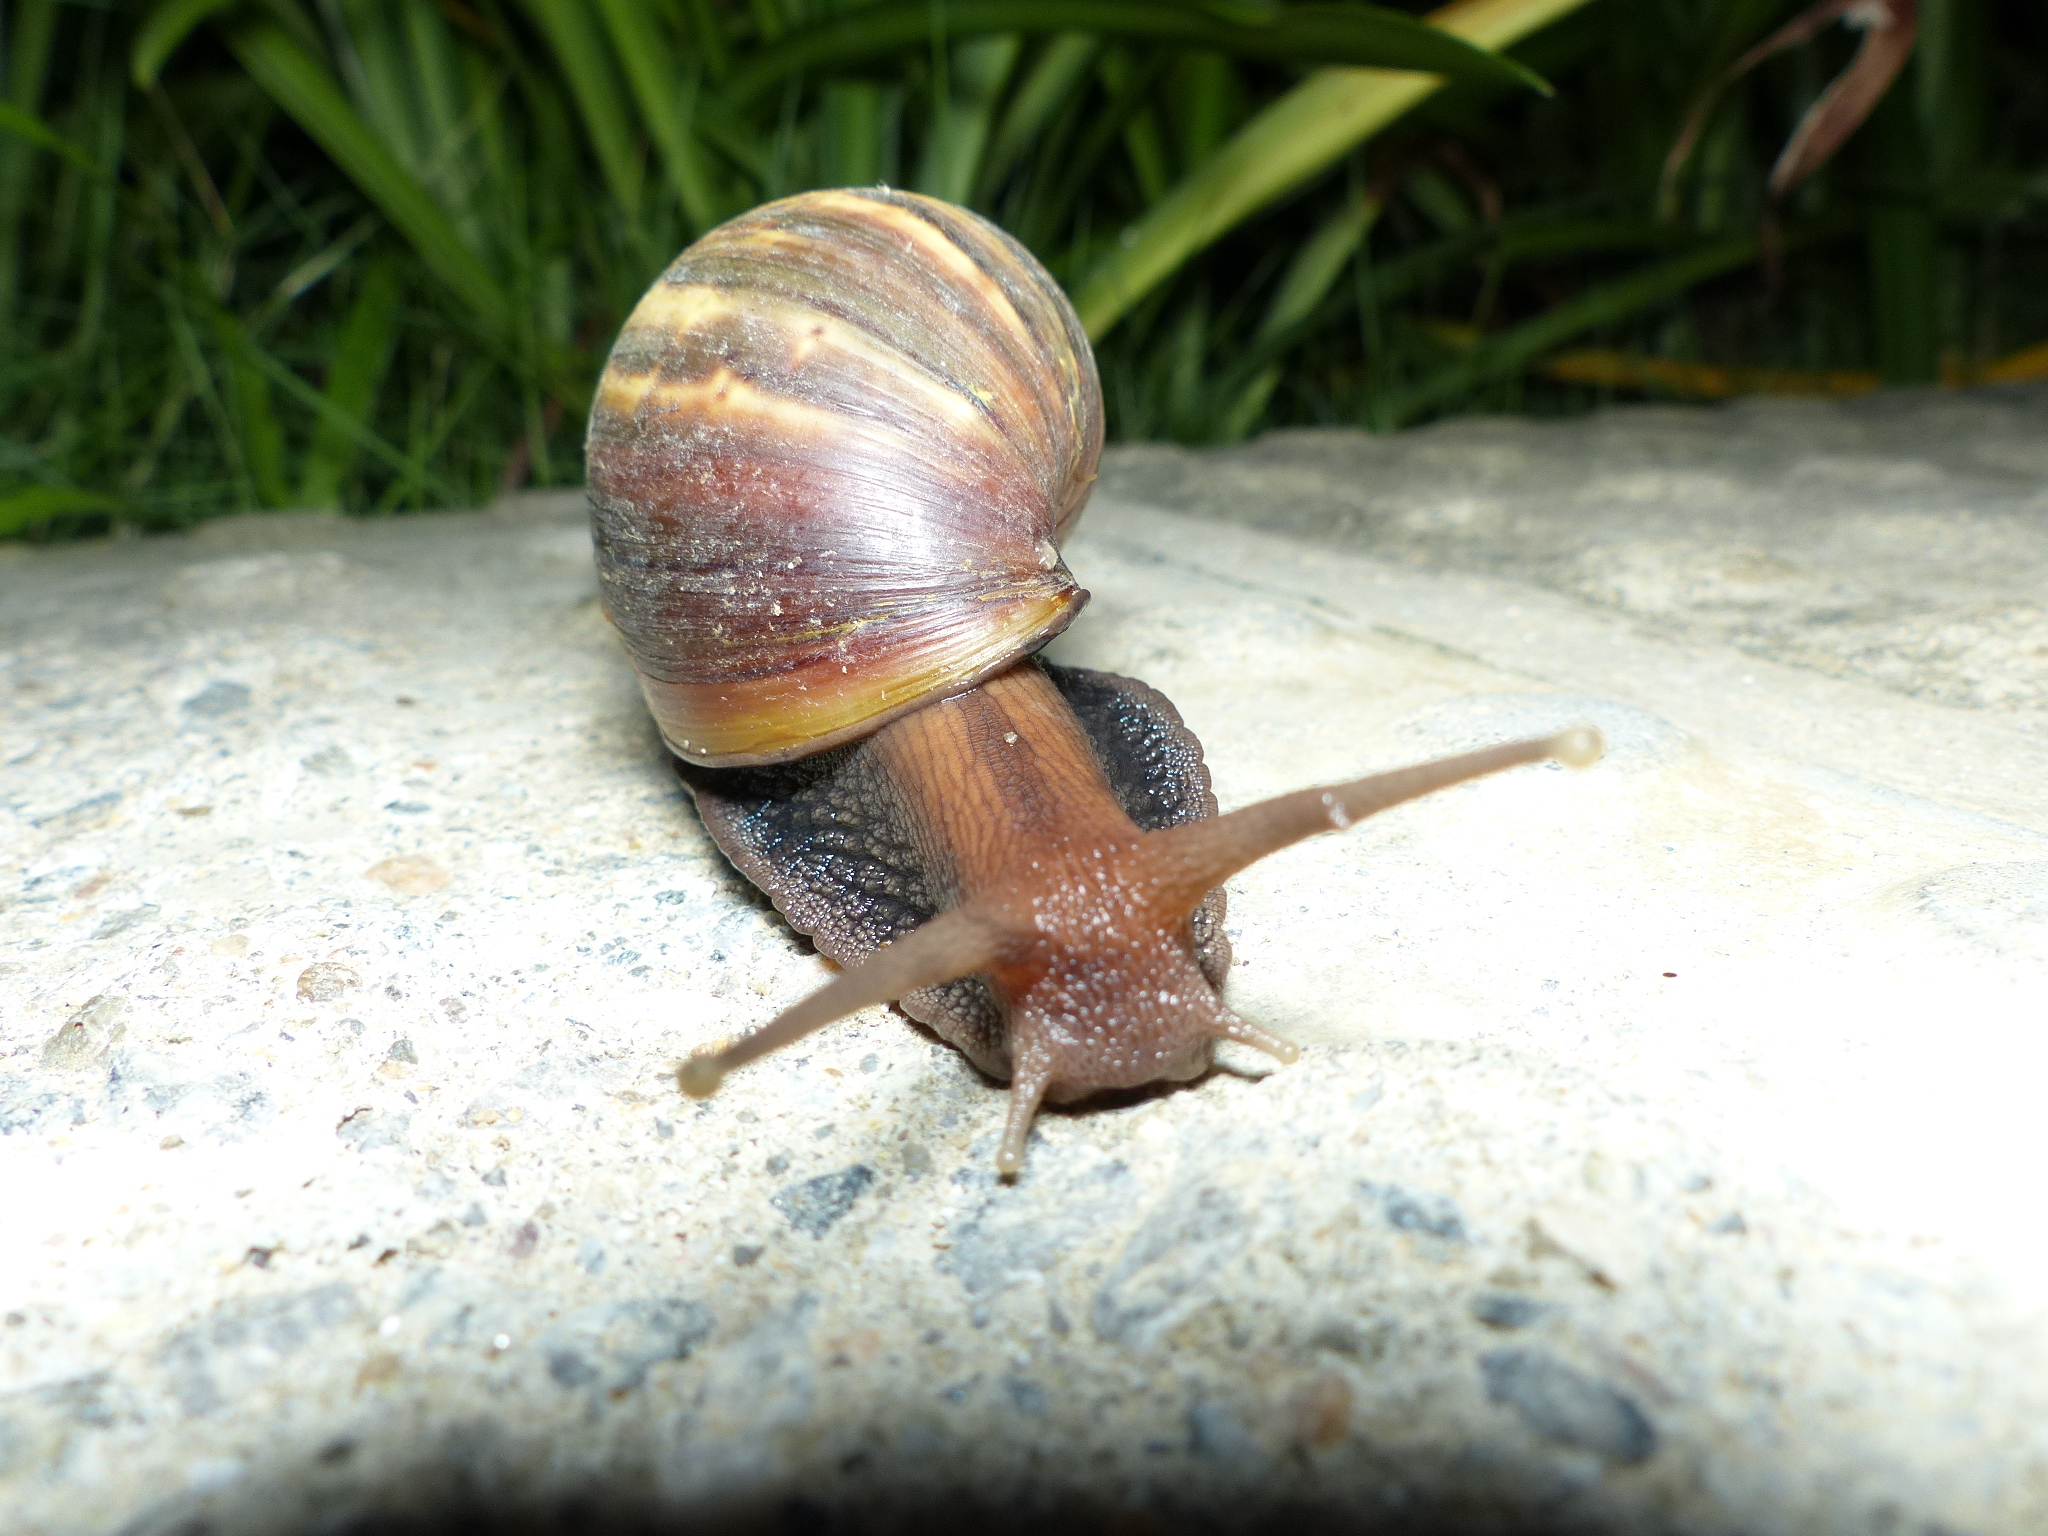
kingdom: Animalia
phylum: Mollusca
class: Gastropoda
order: Stylommatophora
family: Achatinidae
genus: Lissachatina
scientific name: Lissachatina fulica
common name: Giant african snail
